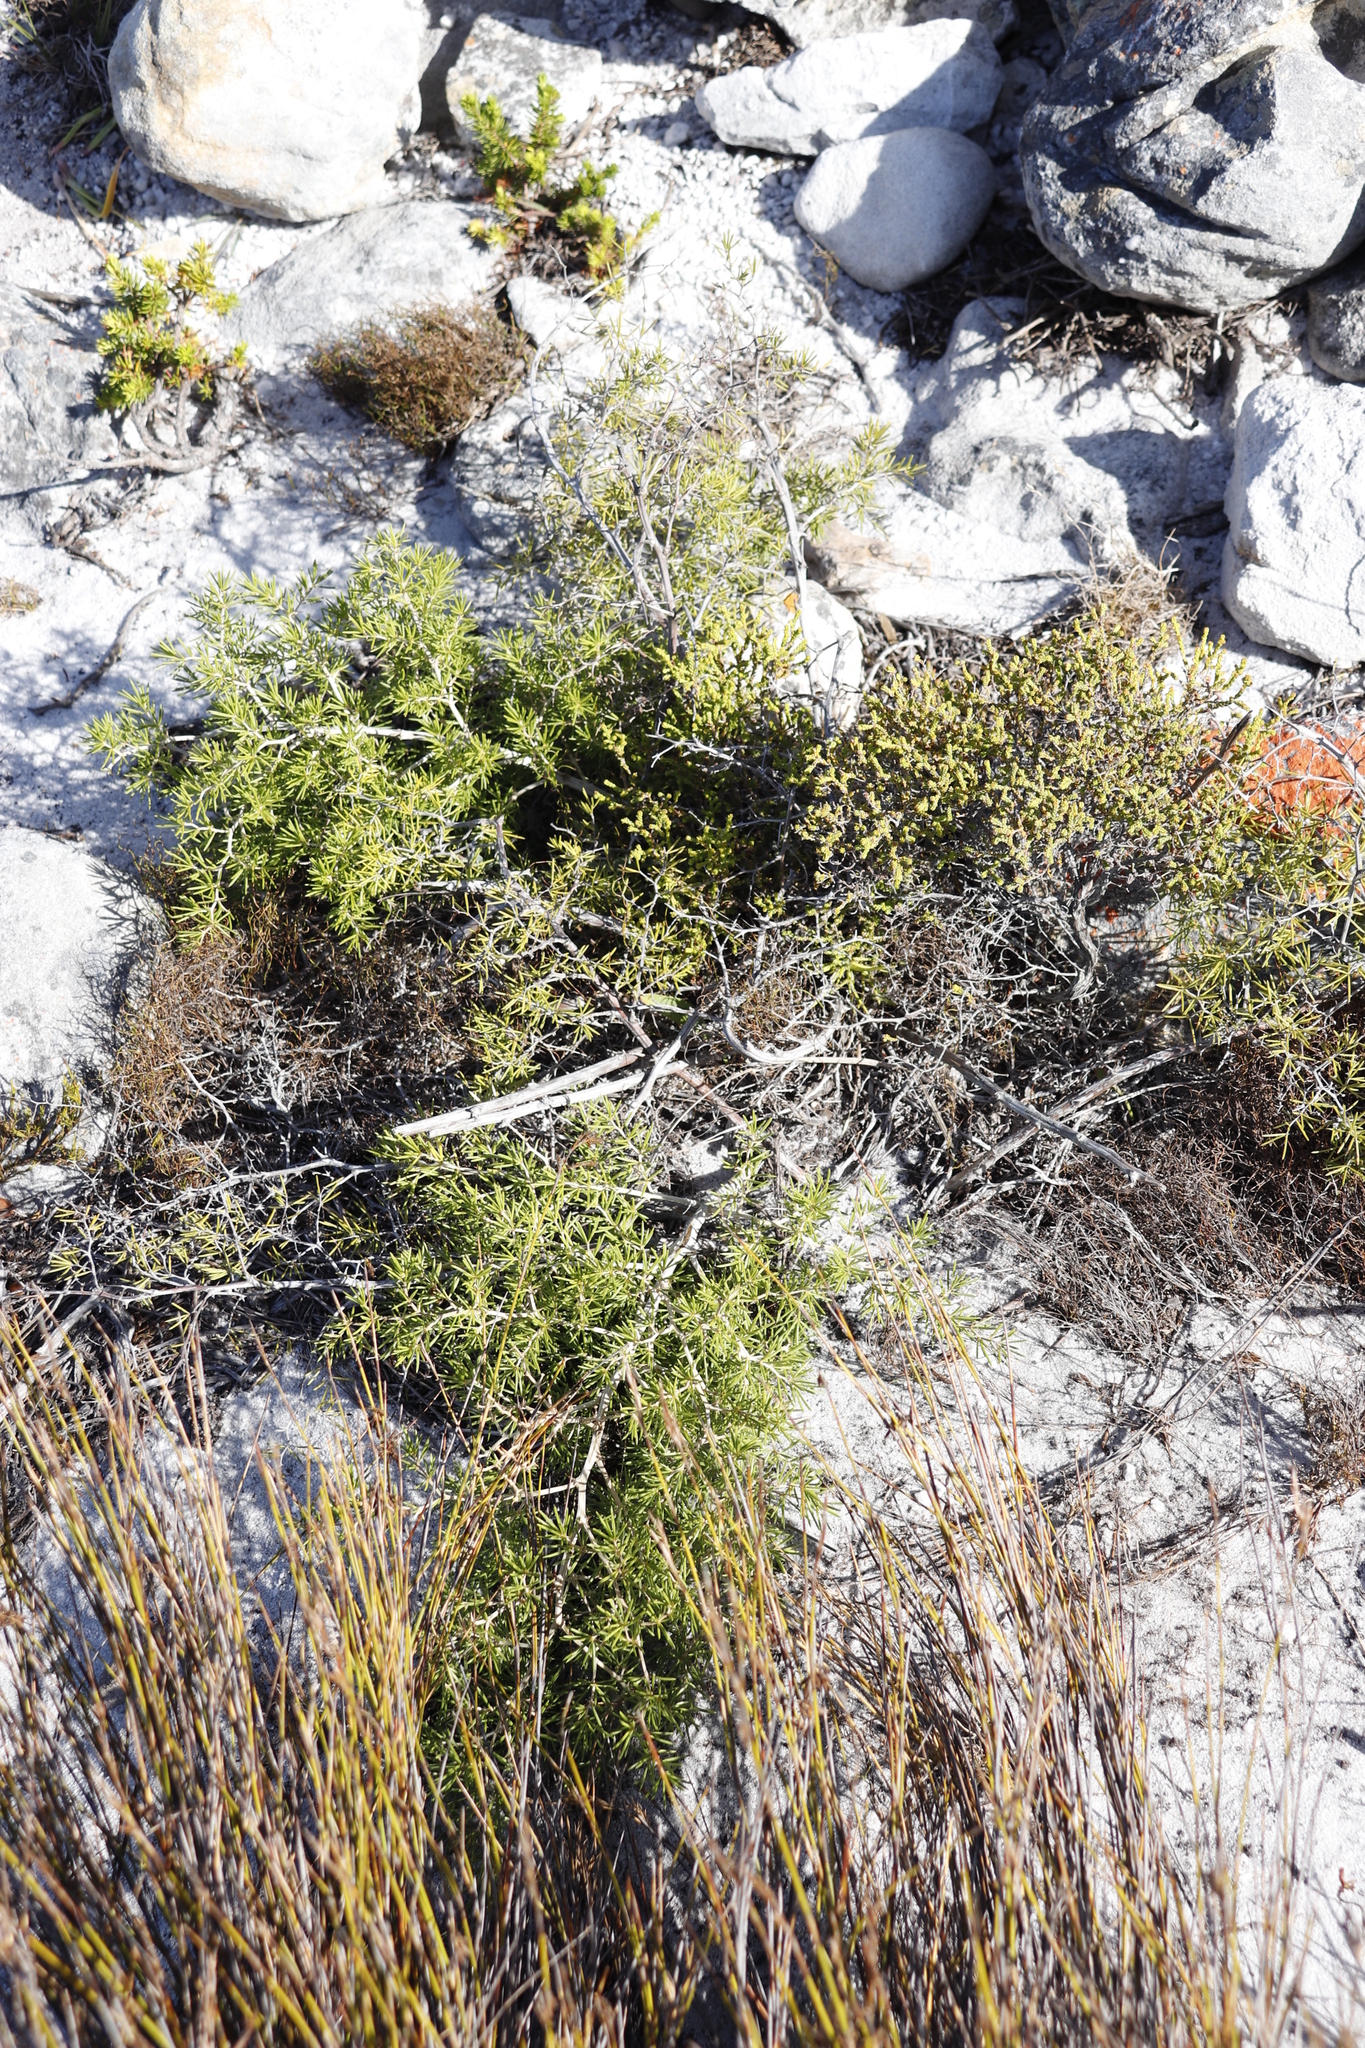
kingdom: Plantae
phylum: Tracheophyta
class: Liliopsida
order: Asparagales
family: Asparagaceae
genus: Asparagus
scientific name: Asparagus lignosus
